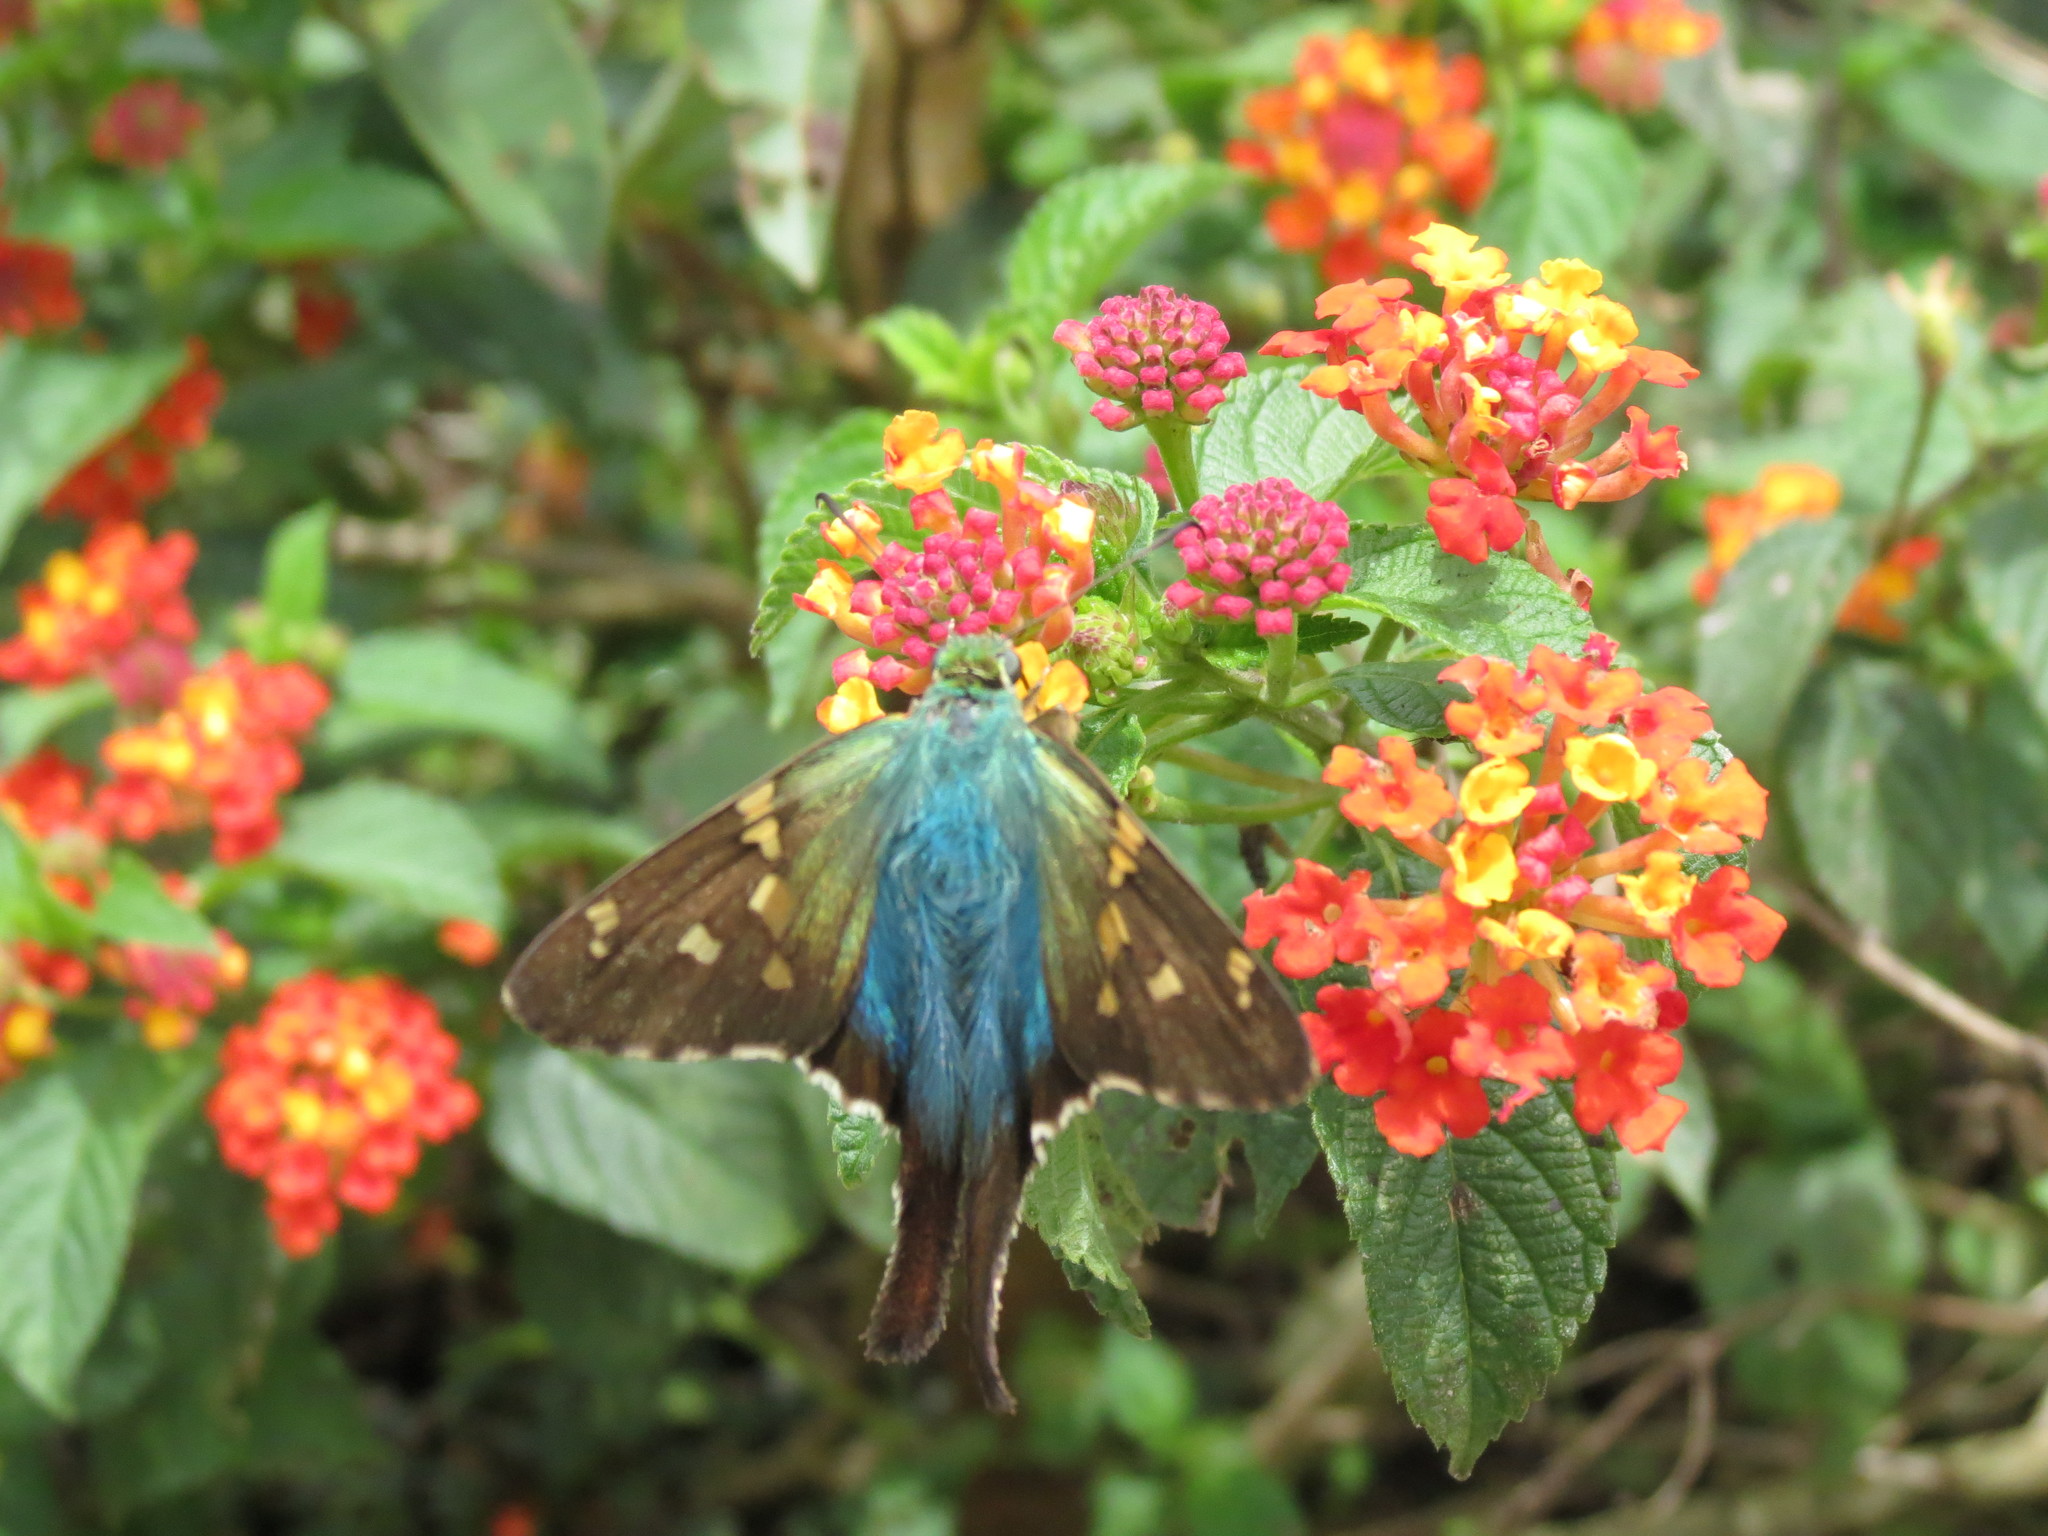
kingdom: Animalia
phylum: Arthropoda
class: Insecta
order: Lepidoptera
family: Hesperiidae
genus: Urbanus
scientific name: Urbanus proteus
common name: Long-tailed skipper
